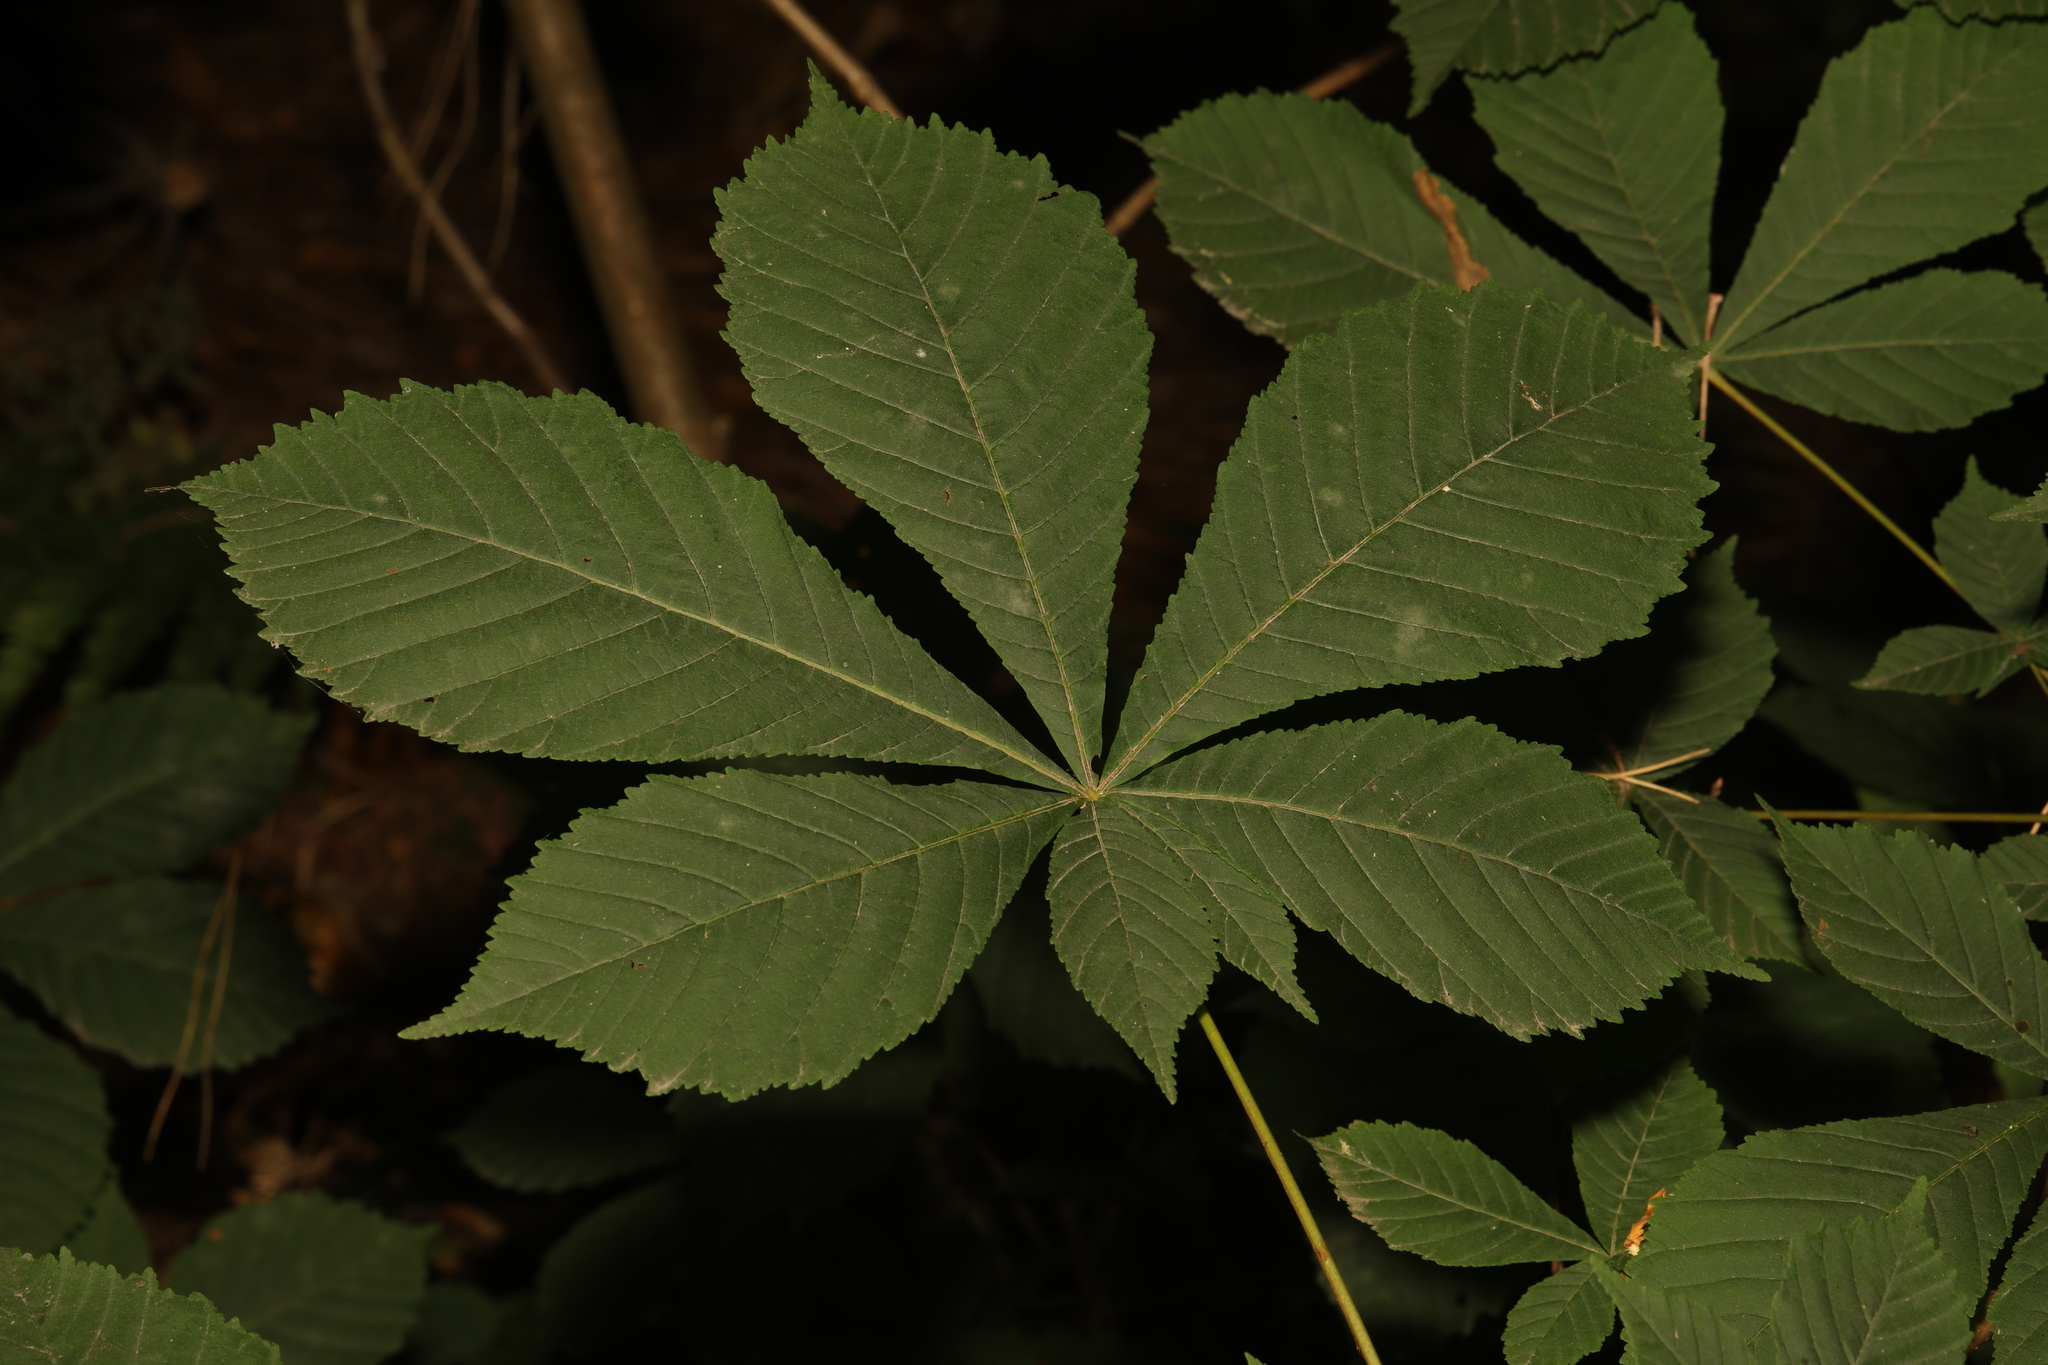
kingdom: Plantae
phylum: Tracheophyta
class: Magnoliopsida
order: Sapindales
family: Sapindaceae
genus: Aesculus
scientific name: Aesculus hippocastanum
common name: Horse-chestnut
